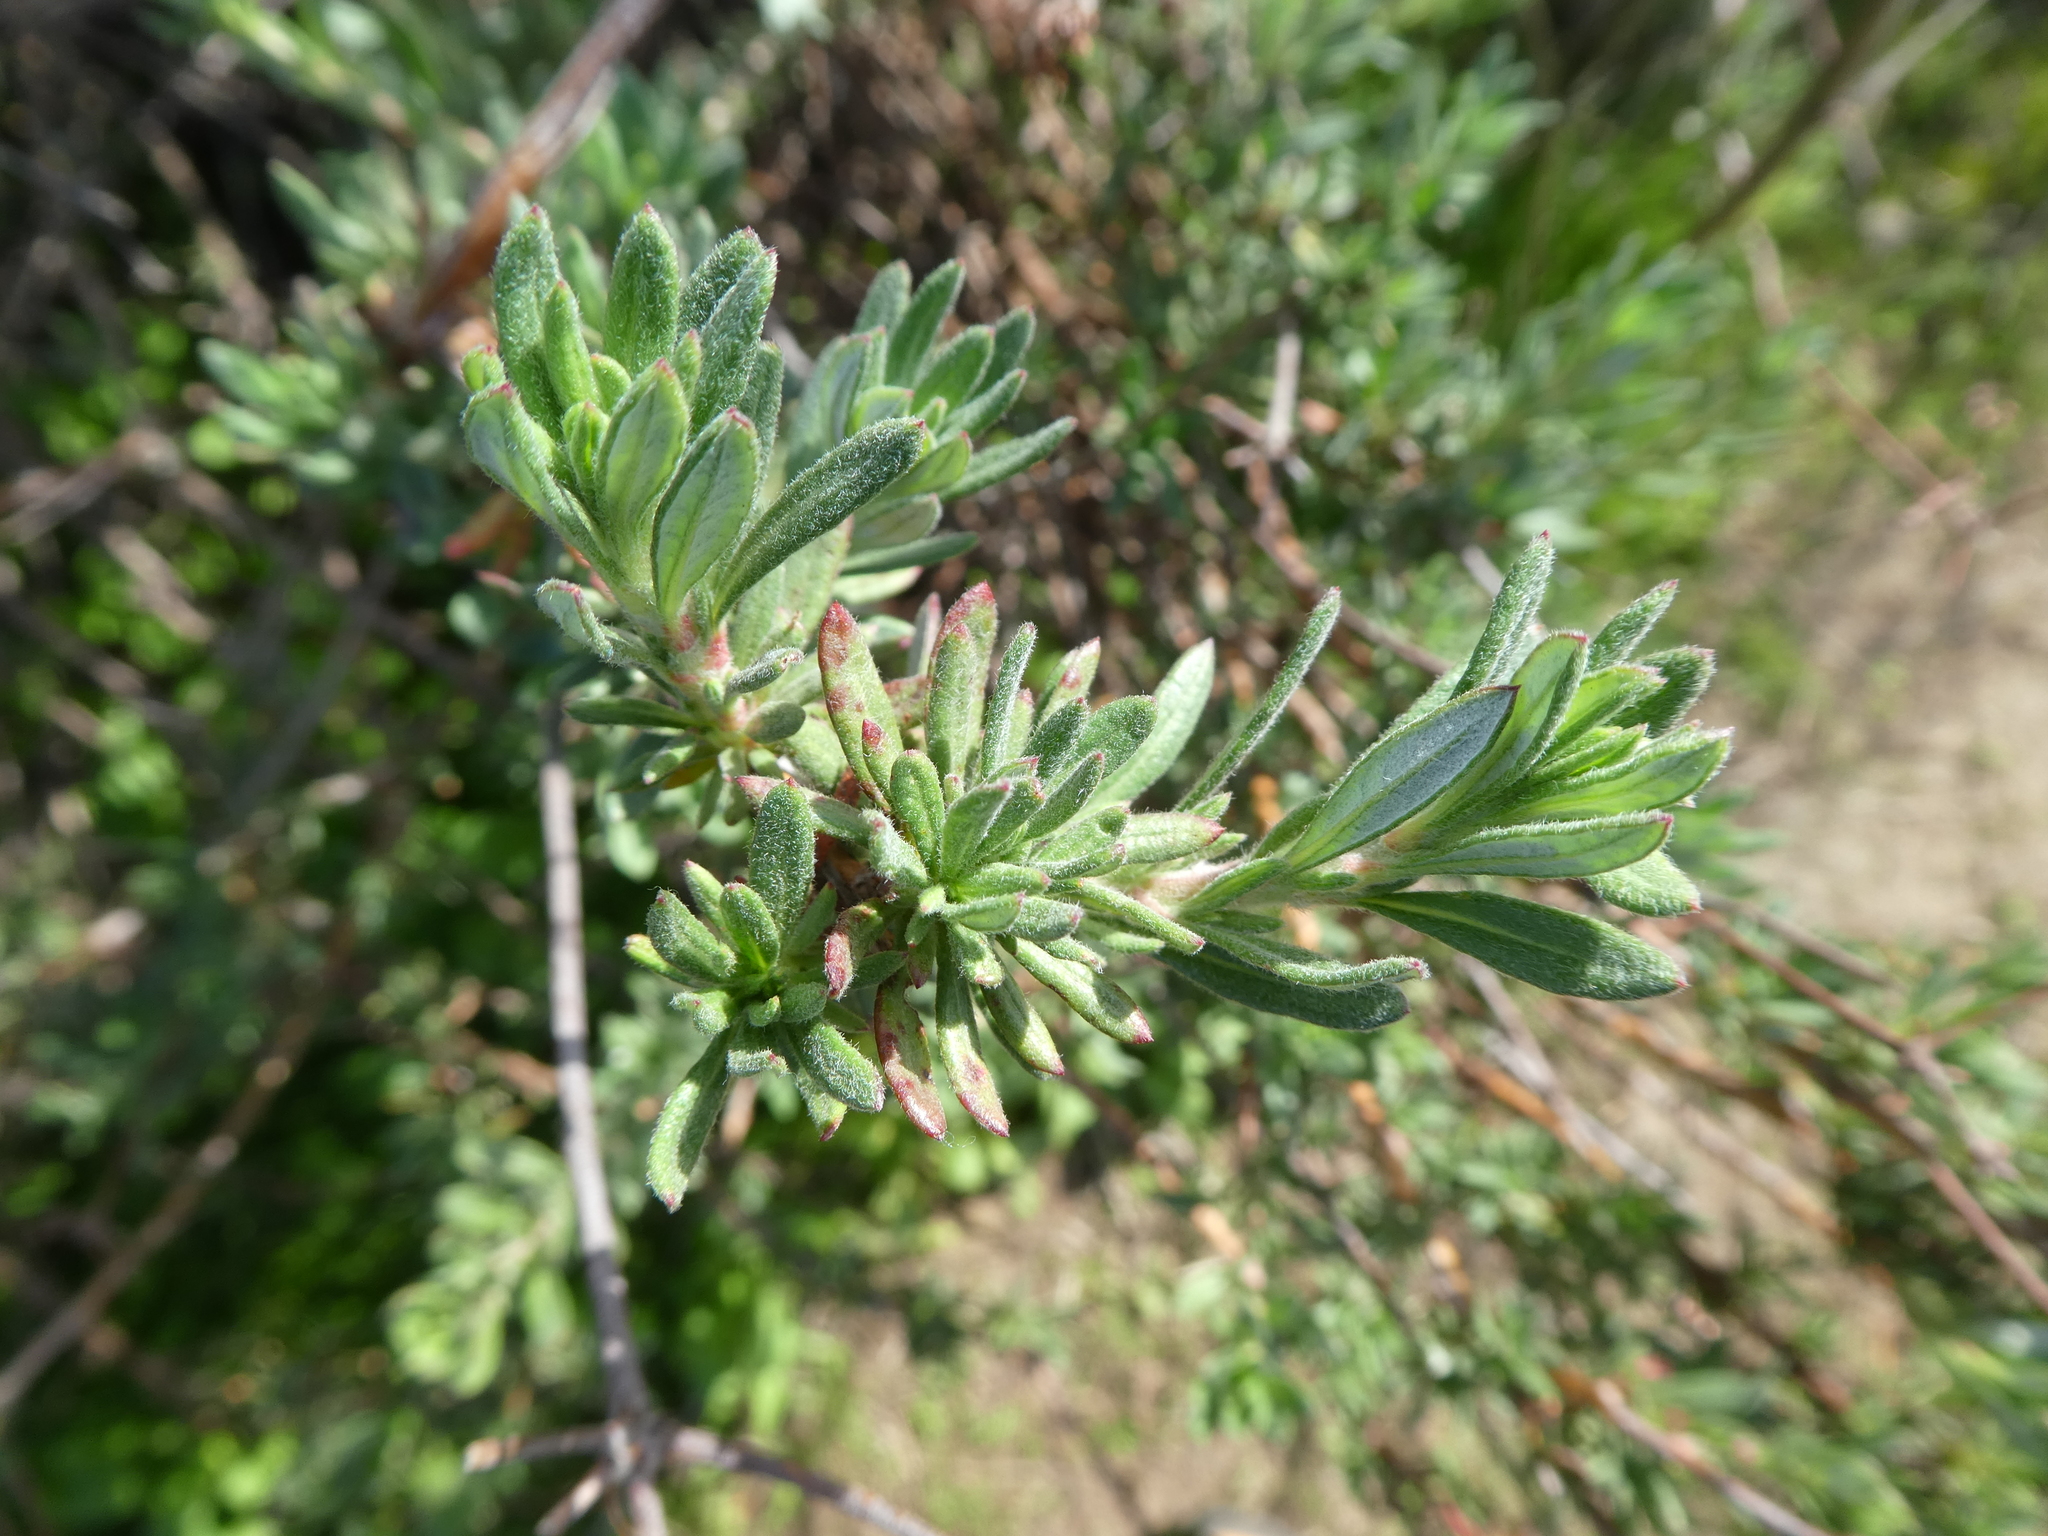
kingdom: Plantae
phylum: Tracheophyta
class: Magnoliopsida
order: Caryophyllales
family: Polygonaceae
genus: Eriogonum
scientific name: Eriogonum fasciculatum
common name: California wild buckwheat
